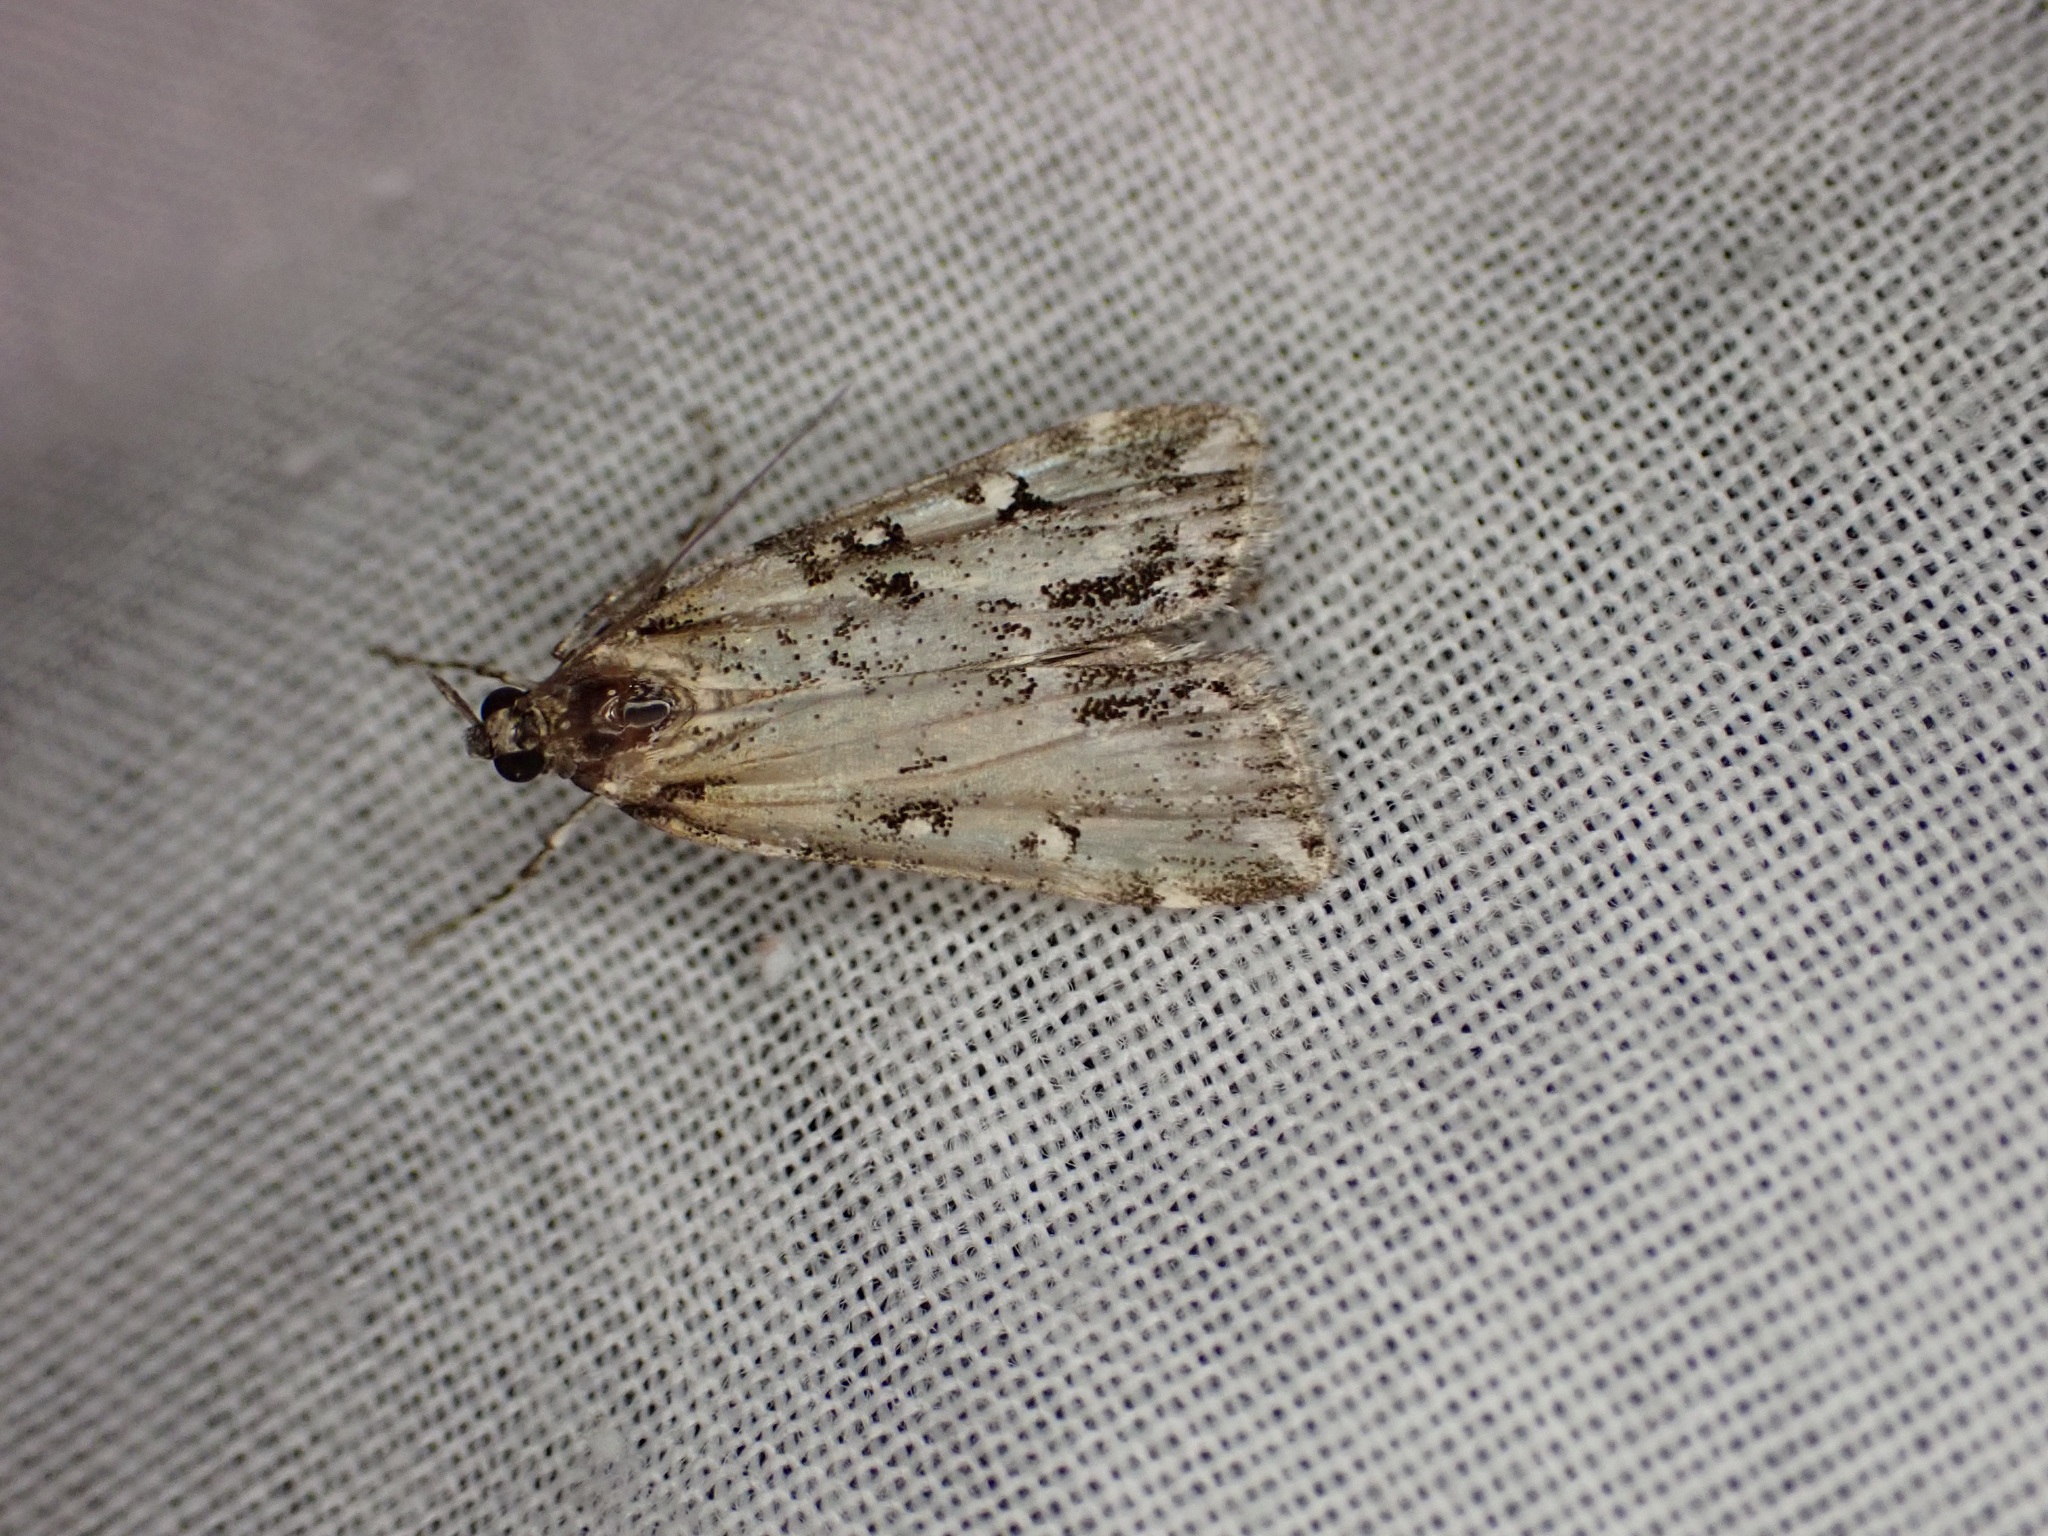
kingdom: Animalia
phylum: Arthropoda
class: Insecta
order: Lepidoptera
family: Crambidae
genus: Eudonia
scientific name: Eudonia diphtheralis
